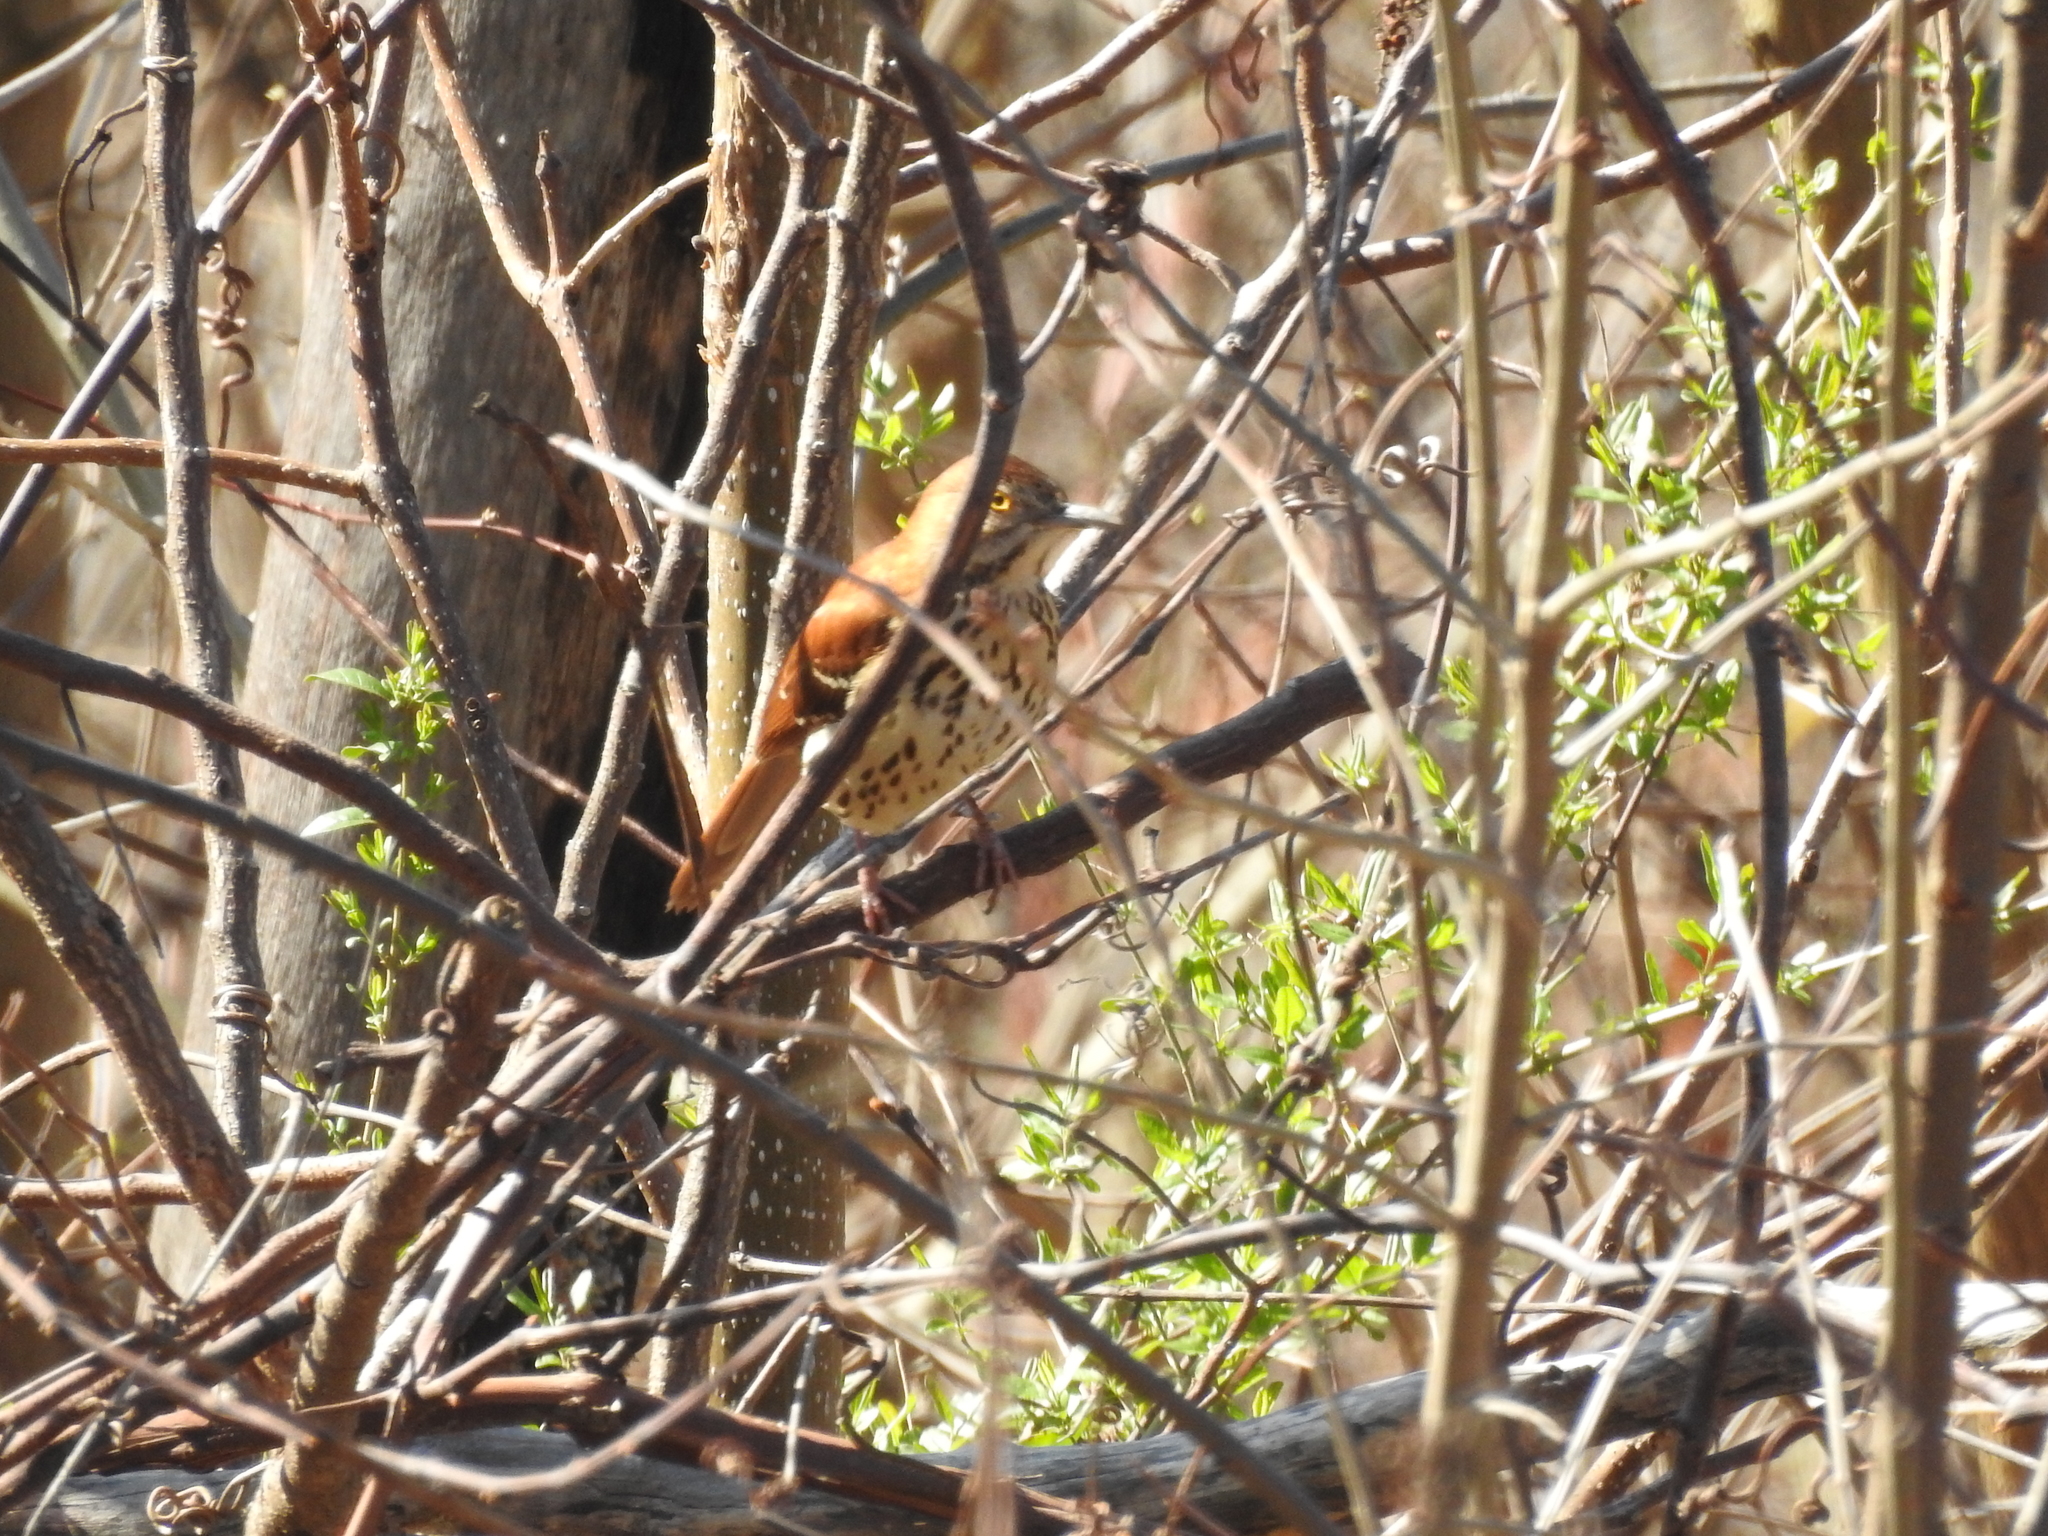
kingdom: Animalia
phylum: Chordata
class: Aves
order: Passeriformes
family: Mimidae
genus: Toxostoma
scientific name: Toxostoma rufum
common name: Brown thrasher
